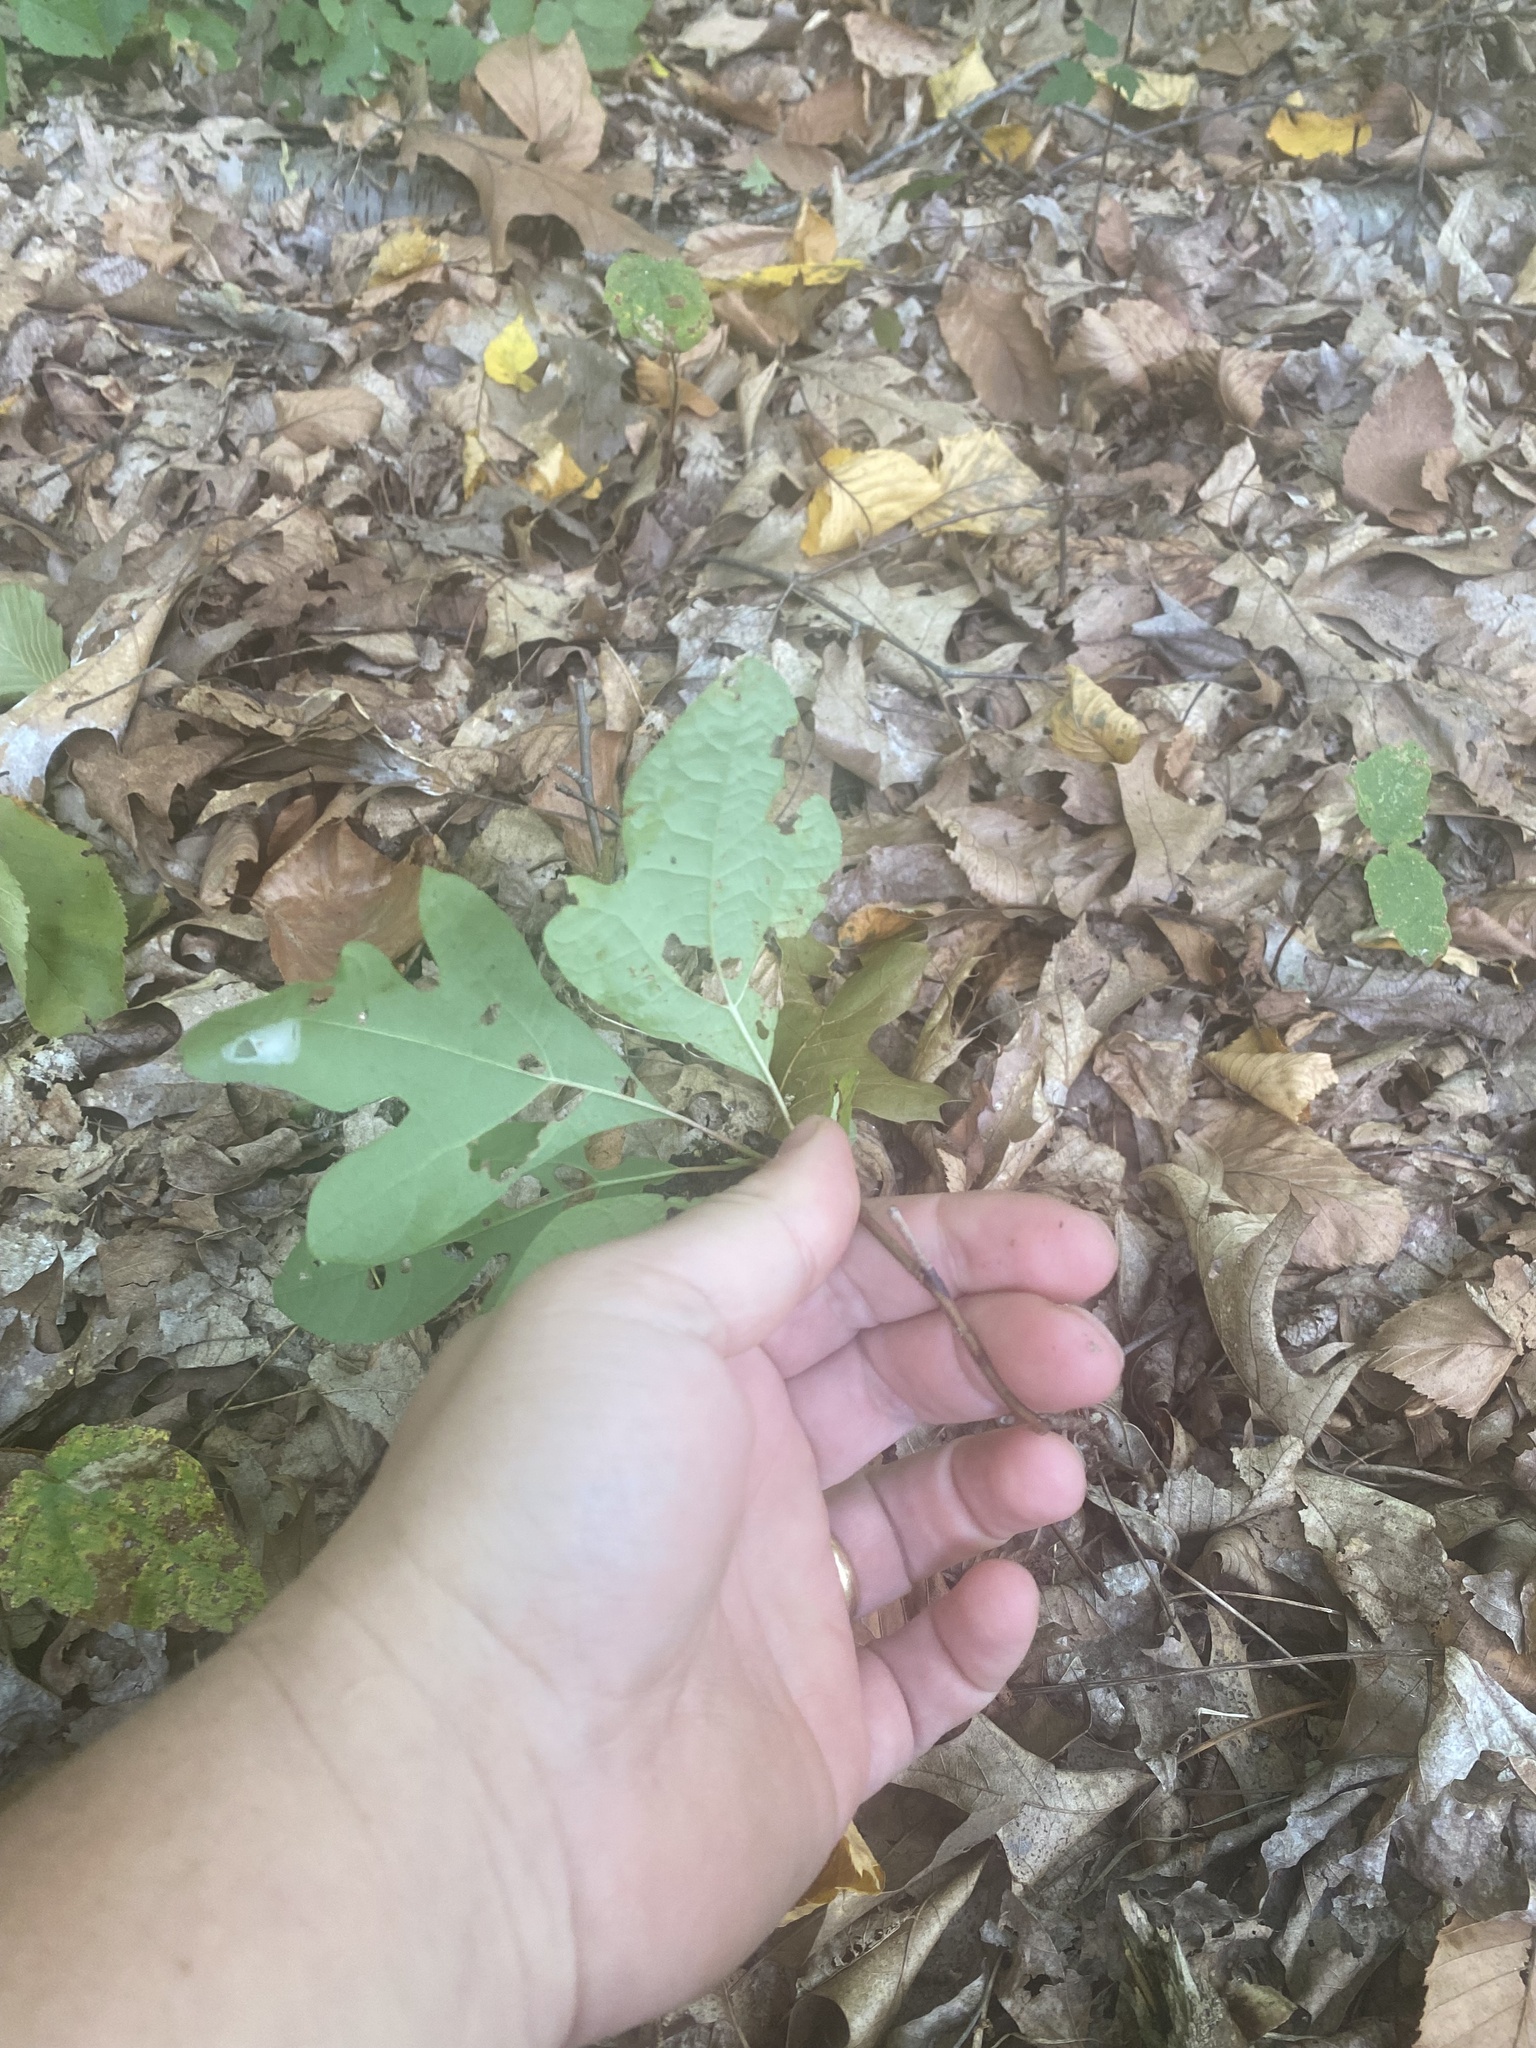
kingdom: Plantae
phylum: Tracheophyta
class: Magnoliopsida
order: Laurales
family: Lauraceae
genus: Sassafras
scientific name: Sassafras albidum
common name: Sassafras
